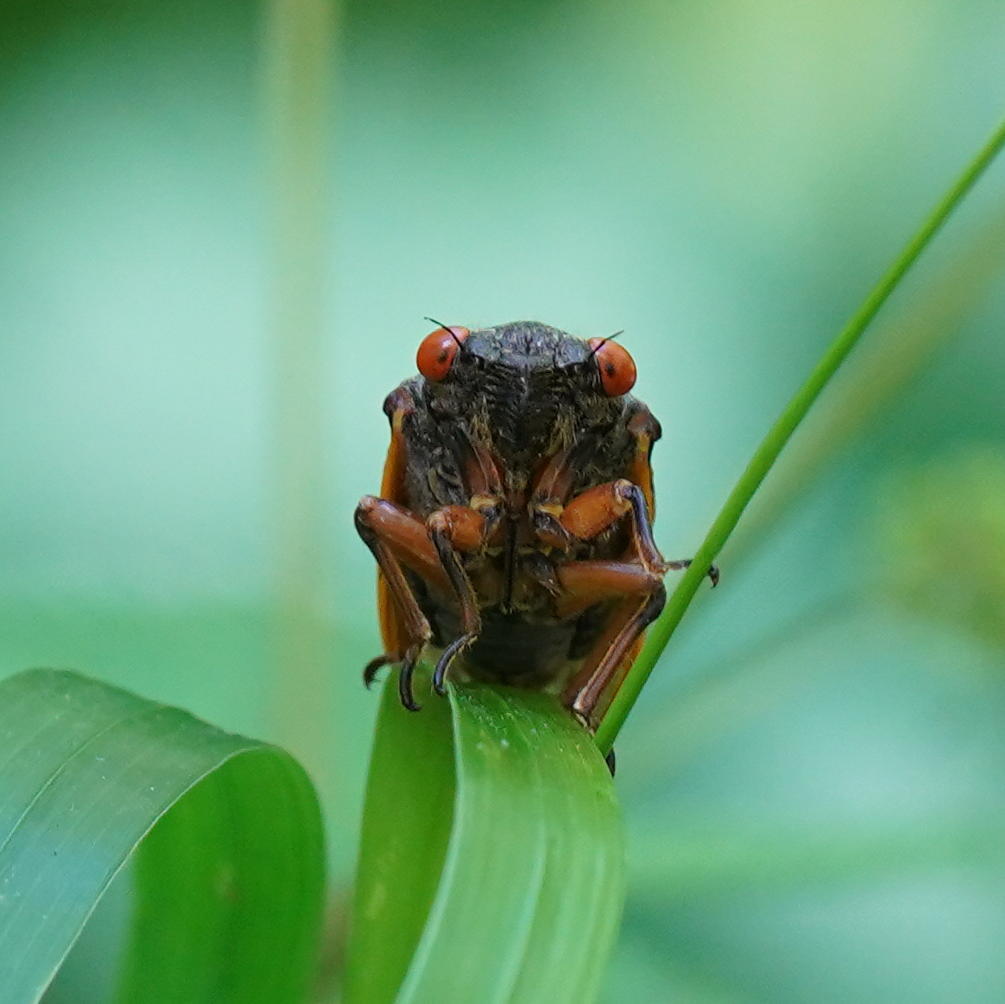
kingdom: Animalia
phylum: Arthropoda
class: Insecta
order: Hemiptera
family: Cicadidae
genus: Magicicada
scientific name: Magicicada
